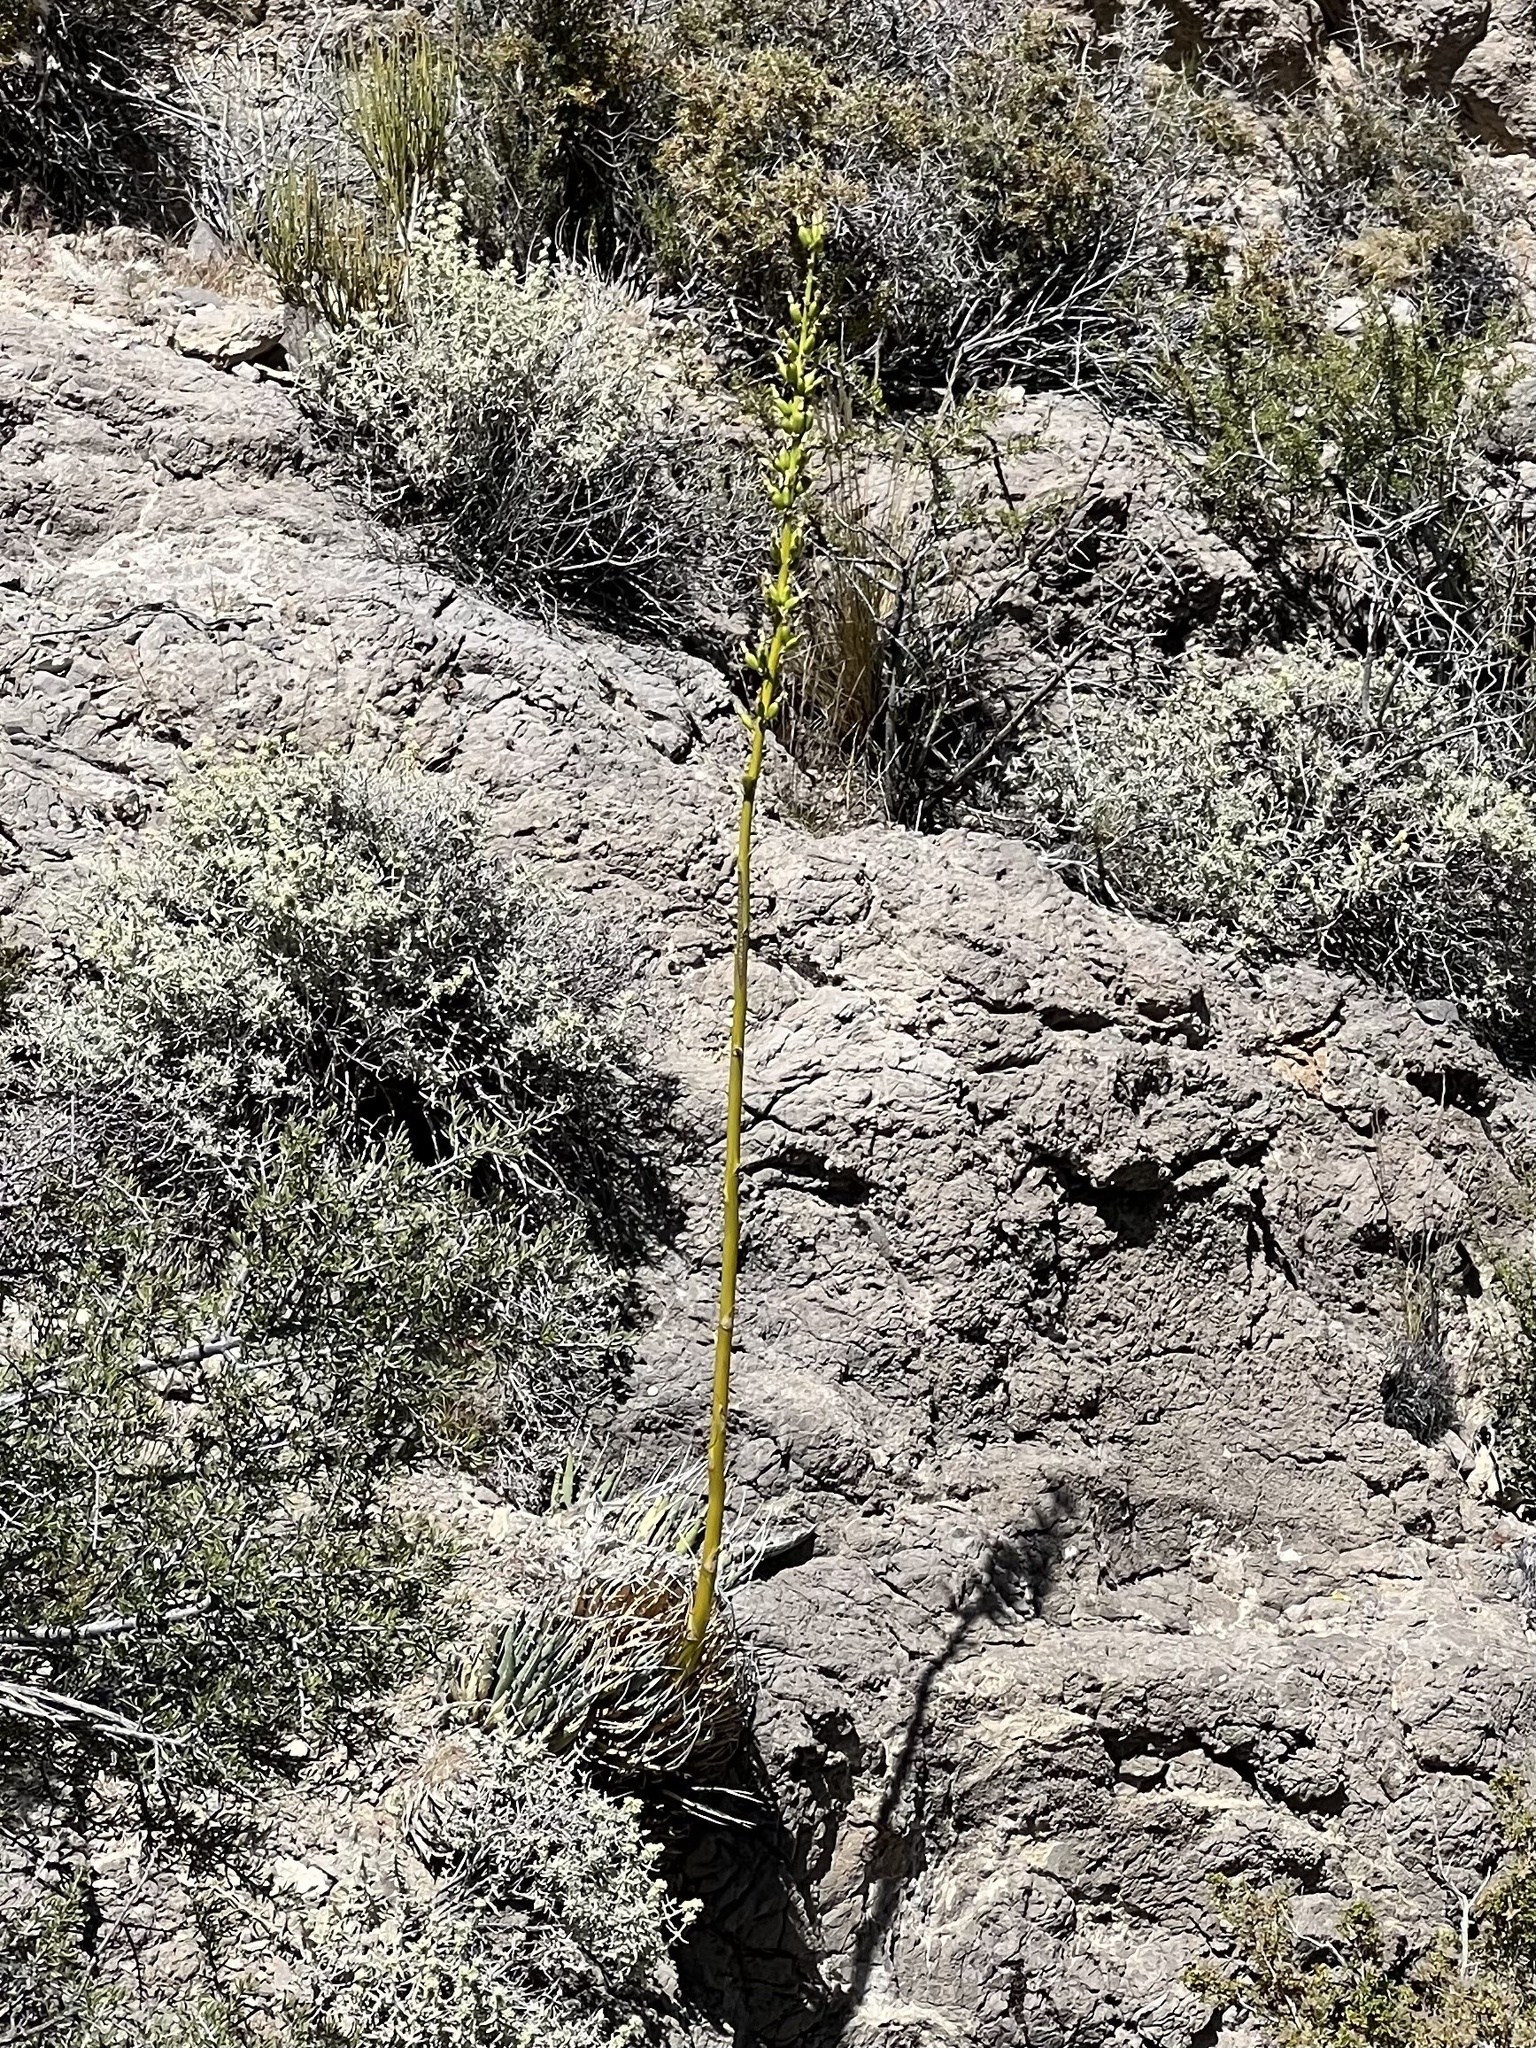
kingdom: Plantae
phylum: Tracheophyta
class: Liliopsida
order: Asparagales
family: Asparagaceae
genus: Agave
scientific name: Agave utahensis
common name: Utah agave
